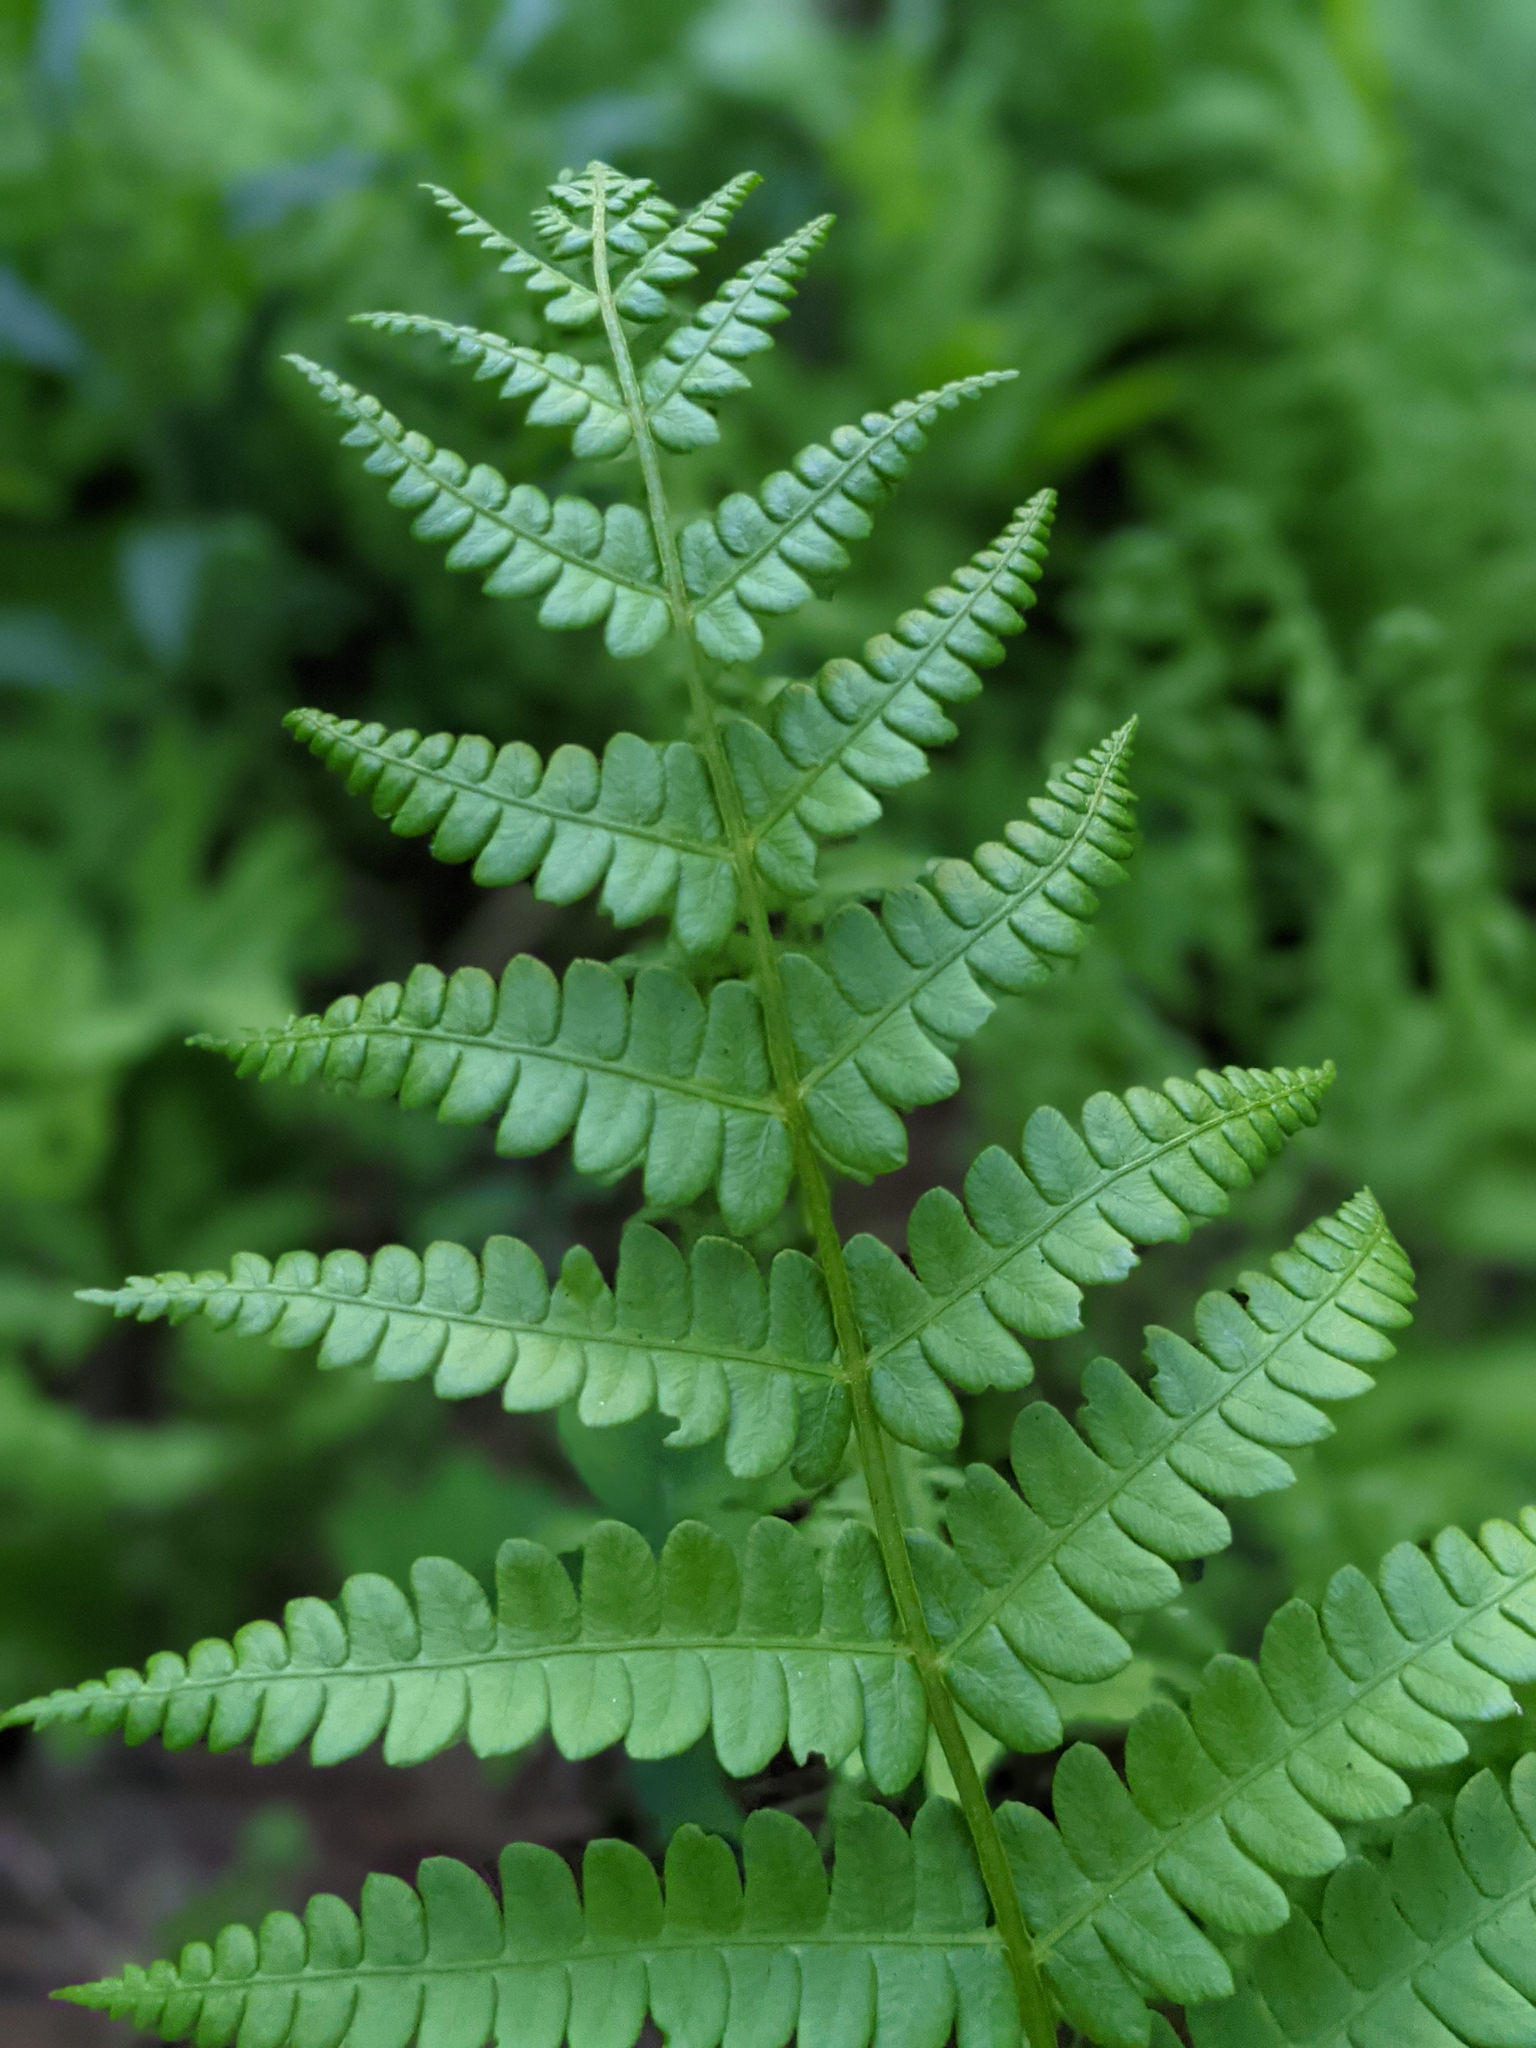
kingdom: Plantae
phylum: Tracheophyta
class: Polypodiopsida
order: Osmundales
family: Osmundaceae
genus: Osmundastrum
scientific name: Osmundastrum cinnamomeum
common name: Cinnamon fern
